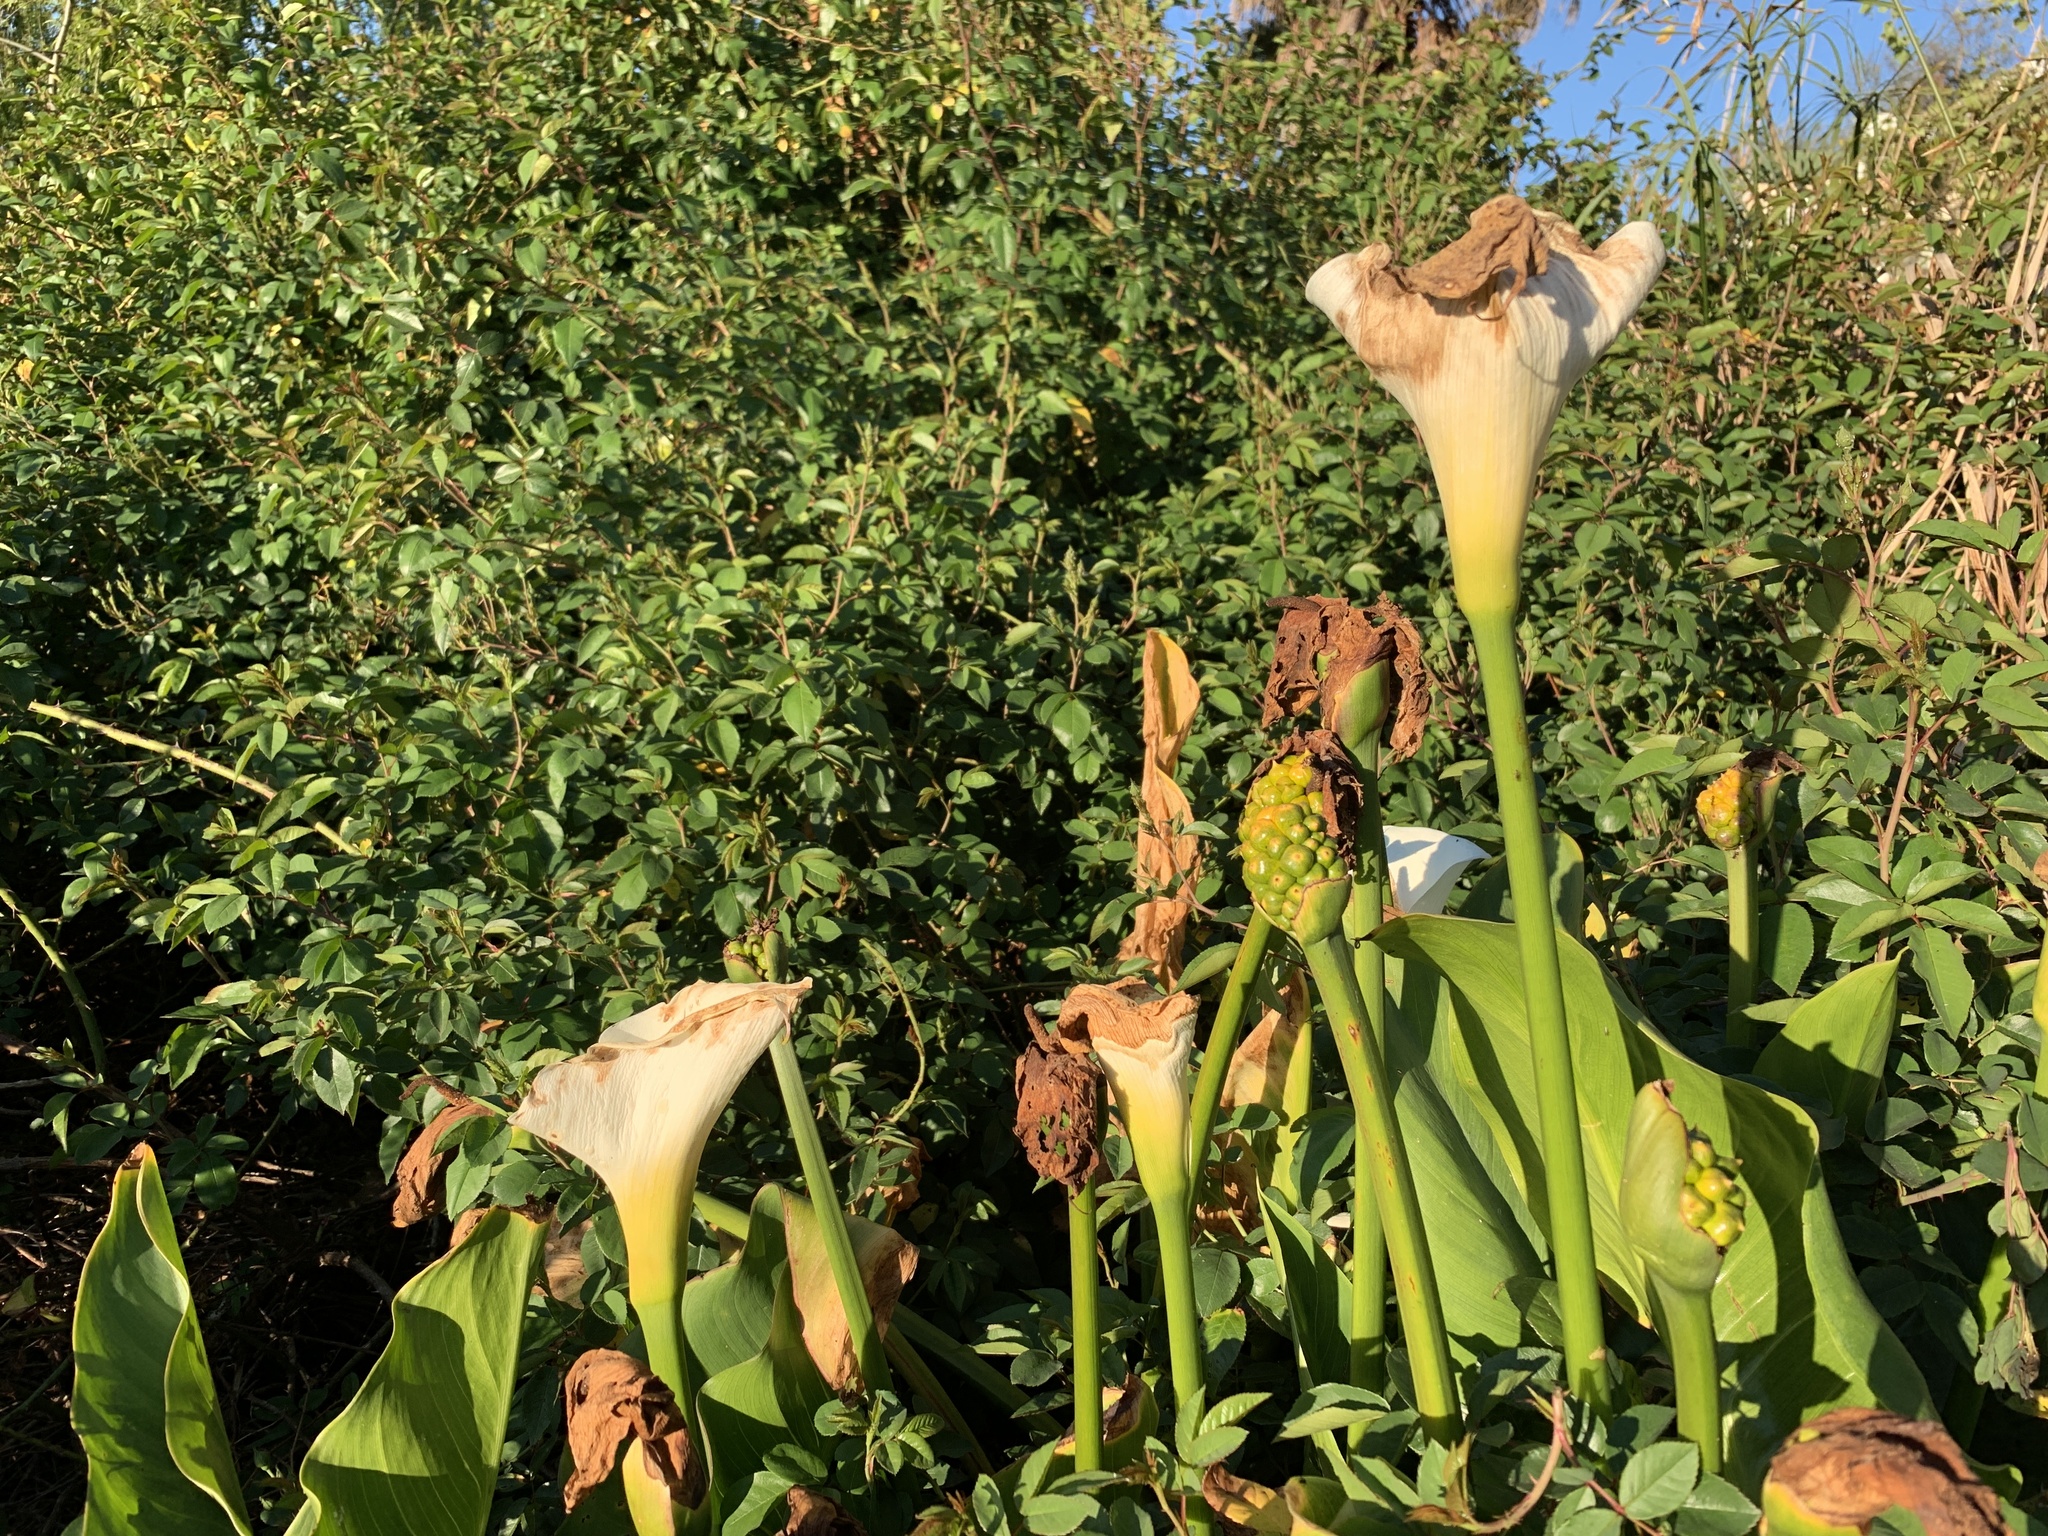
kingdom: Plantae
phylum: Tracheophyta
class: Liliopsida
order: Alismatales
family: Araceae
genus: Zantedeschia
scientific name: Zantedeschia aethiopica
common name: Altar-lily
